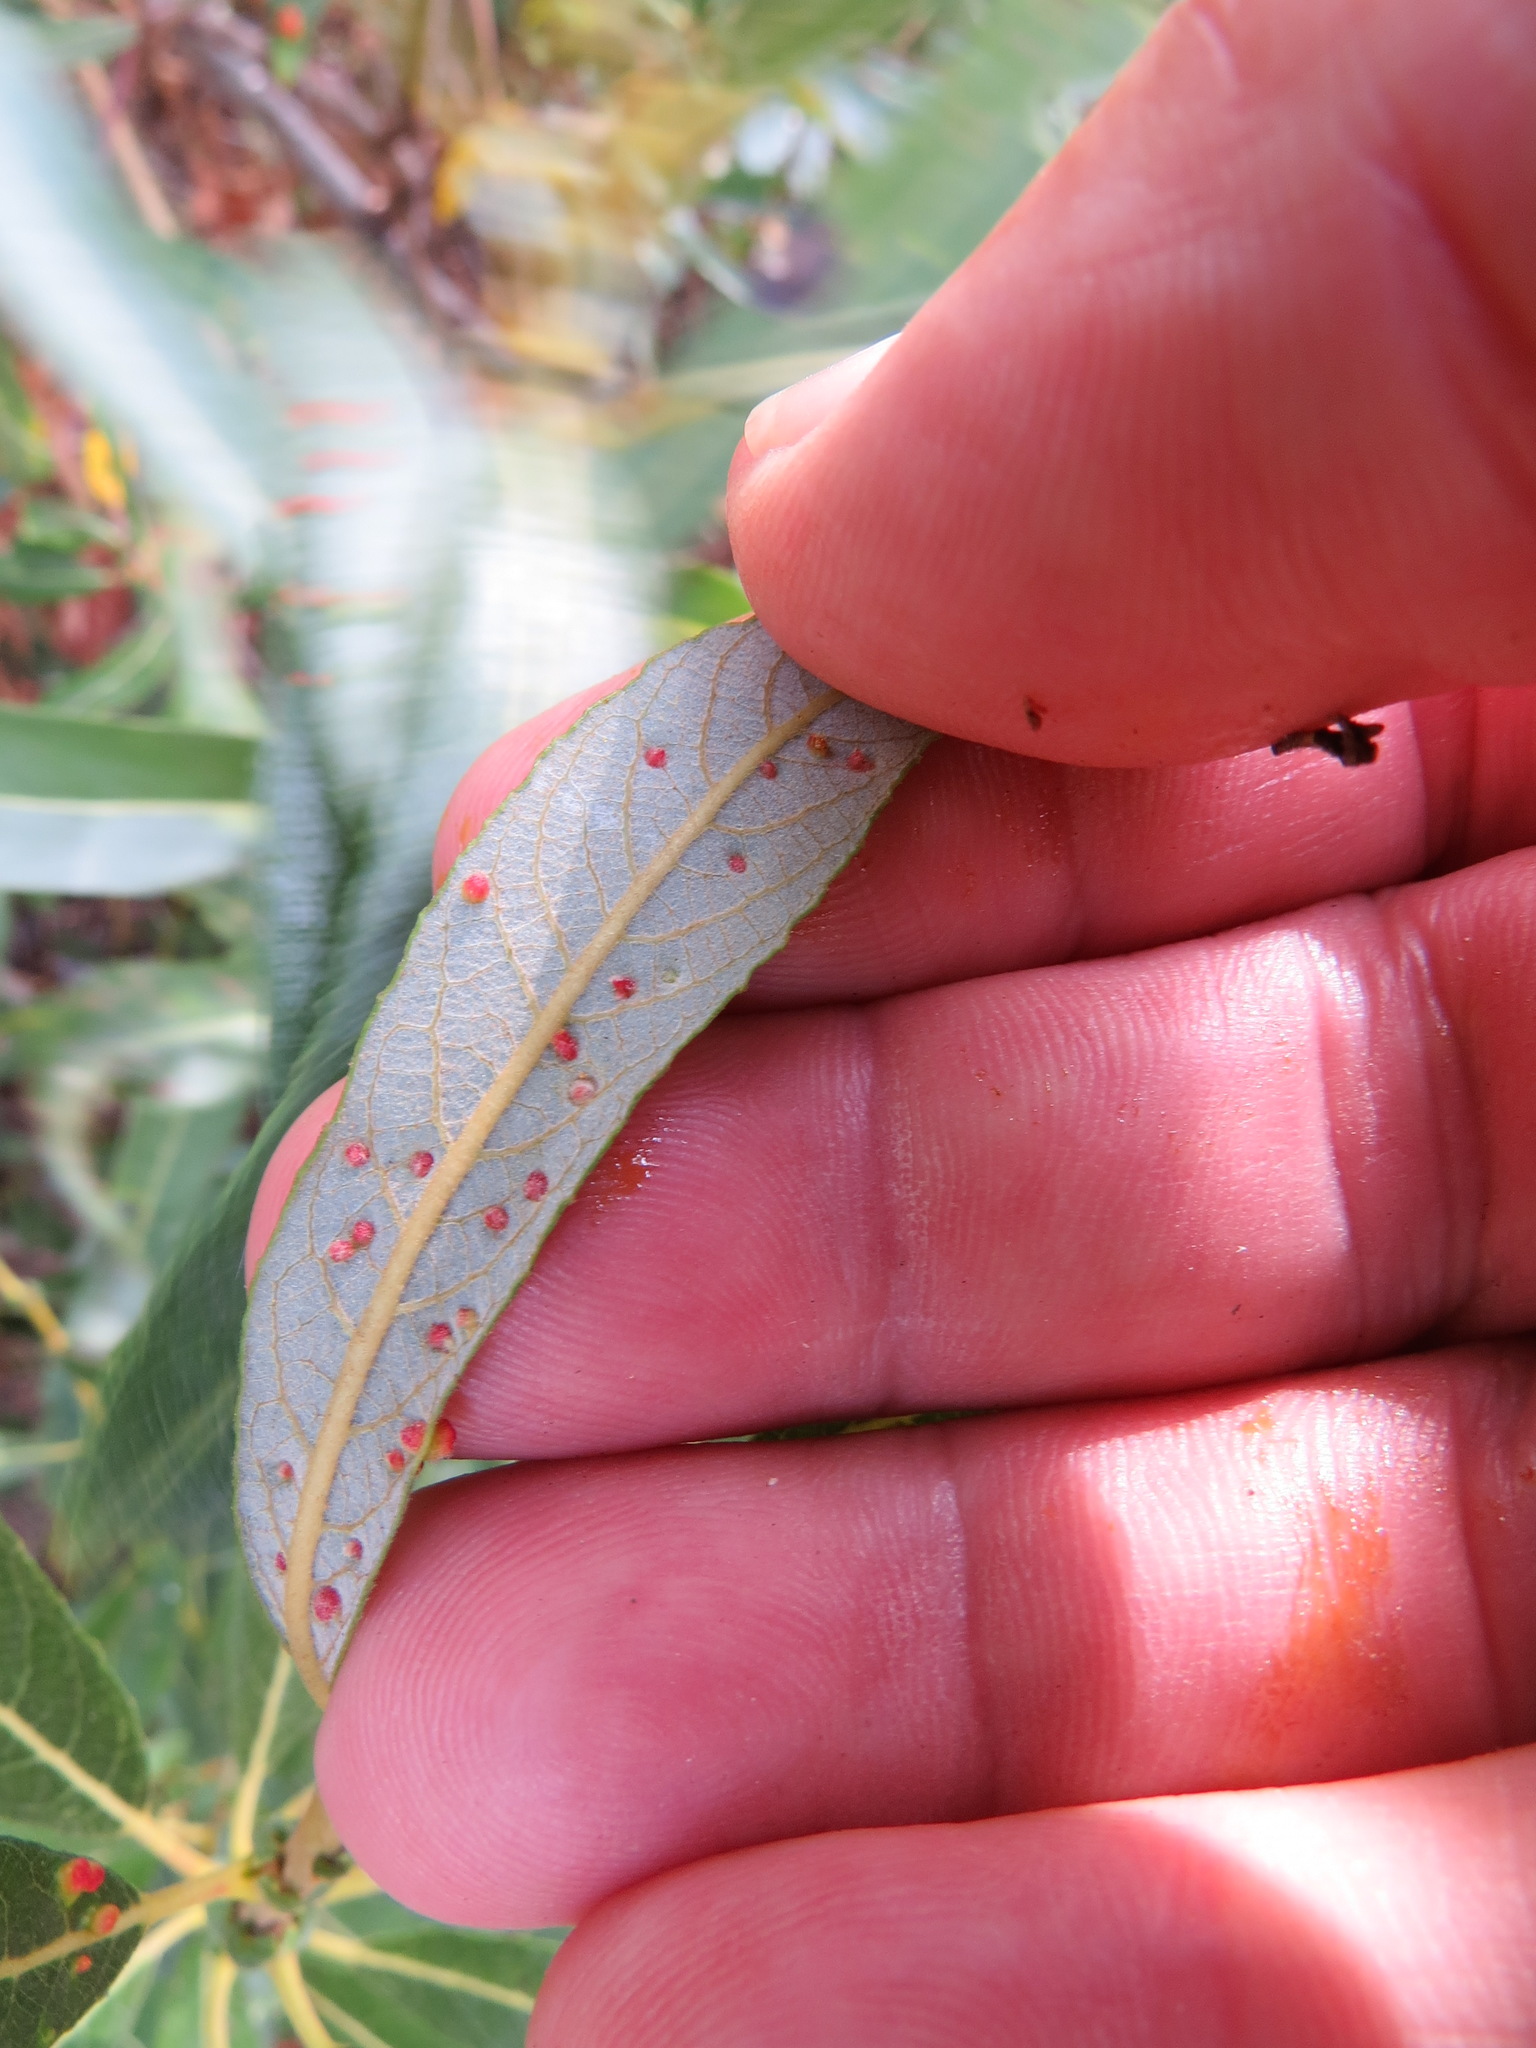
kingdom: Animalia
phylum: Arthropoda
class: Arachnida
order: Trombidiformes
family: Eriophyidae
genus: Aculus
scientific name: Aculus tetanothrix
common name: Willow bead gall mite
